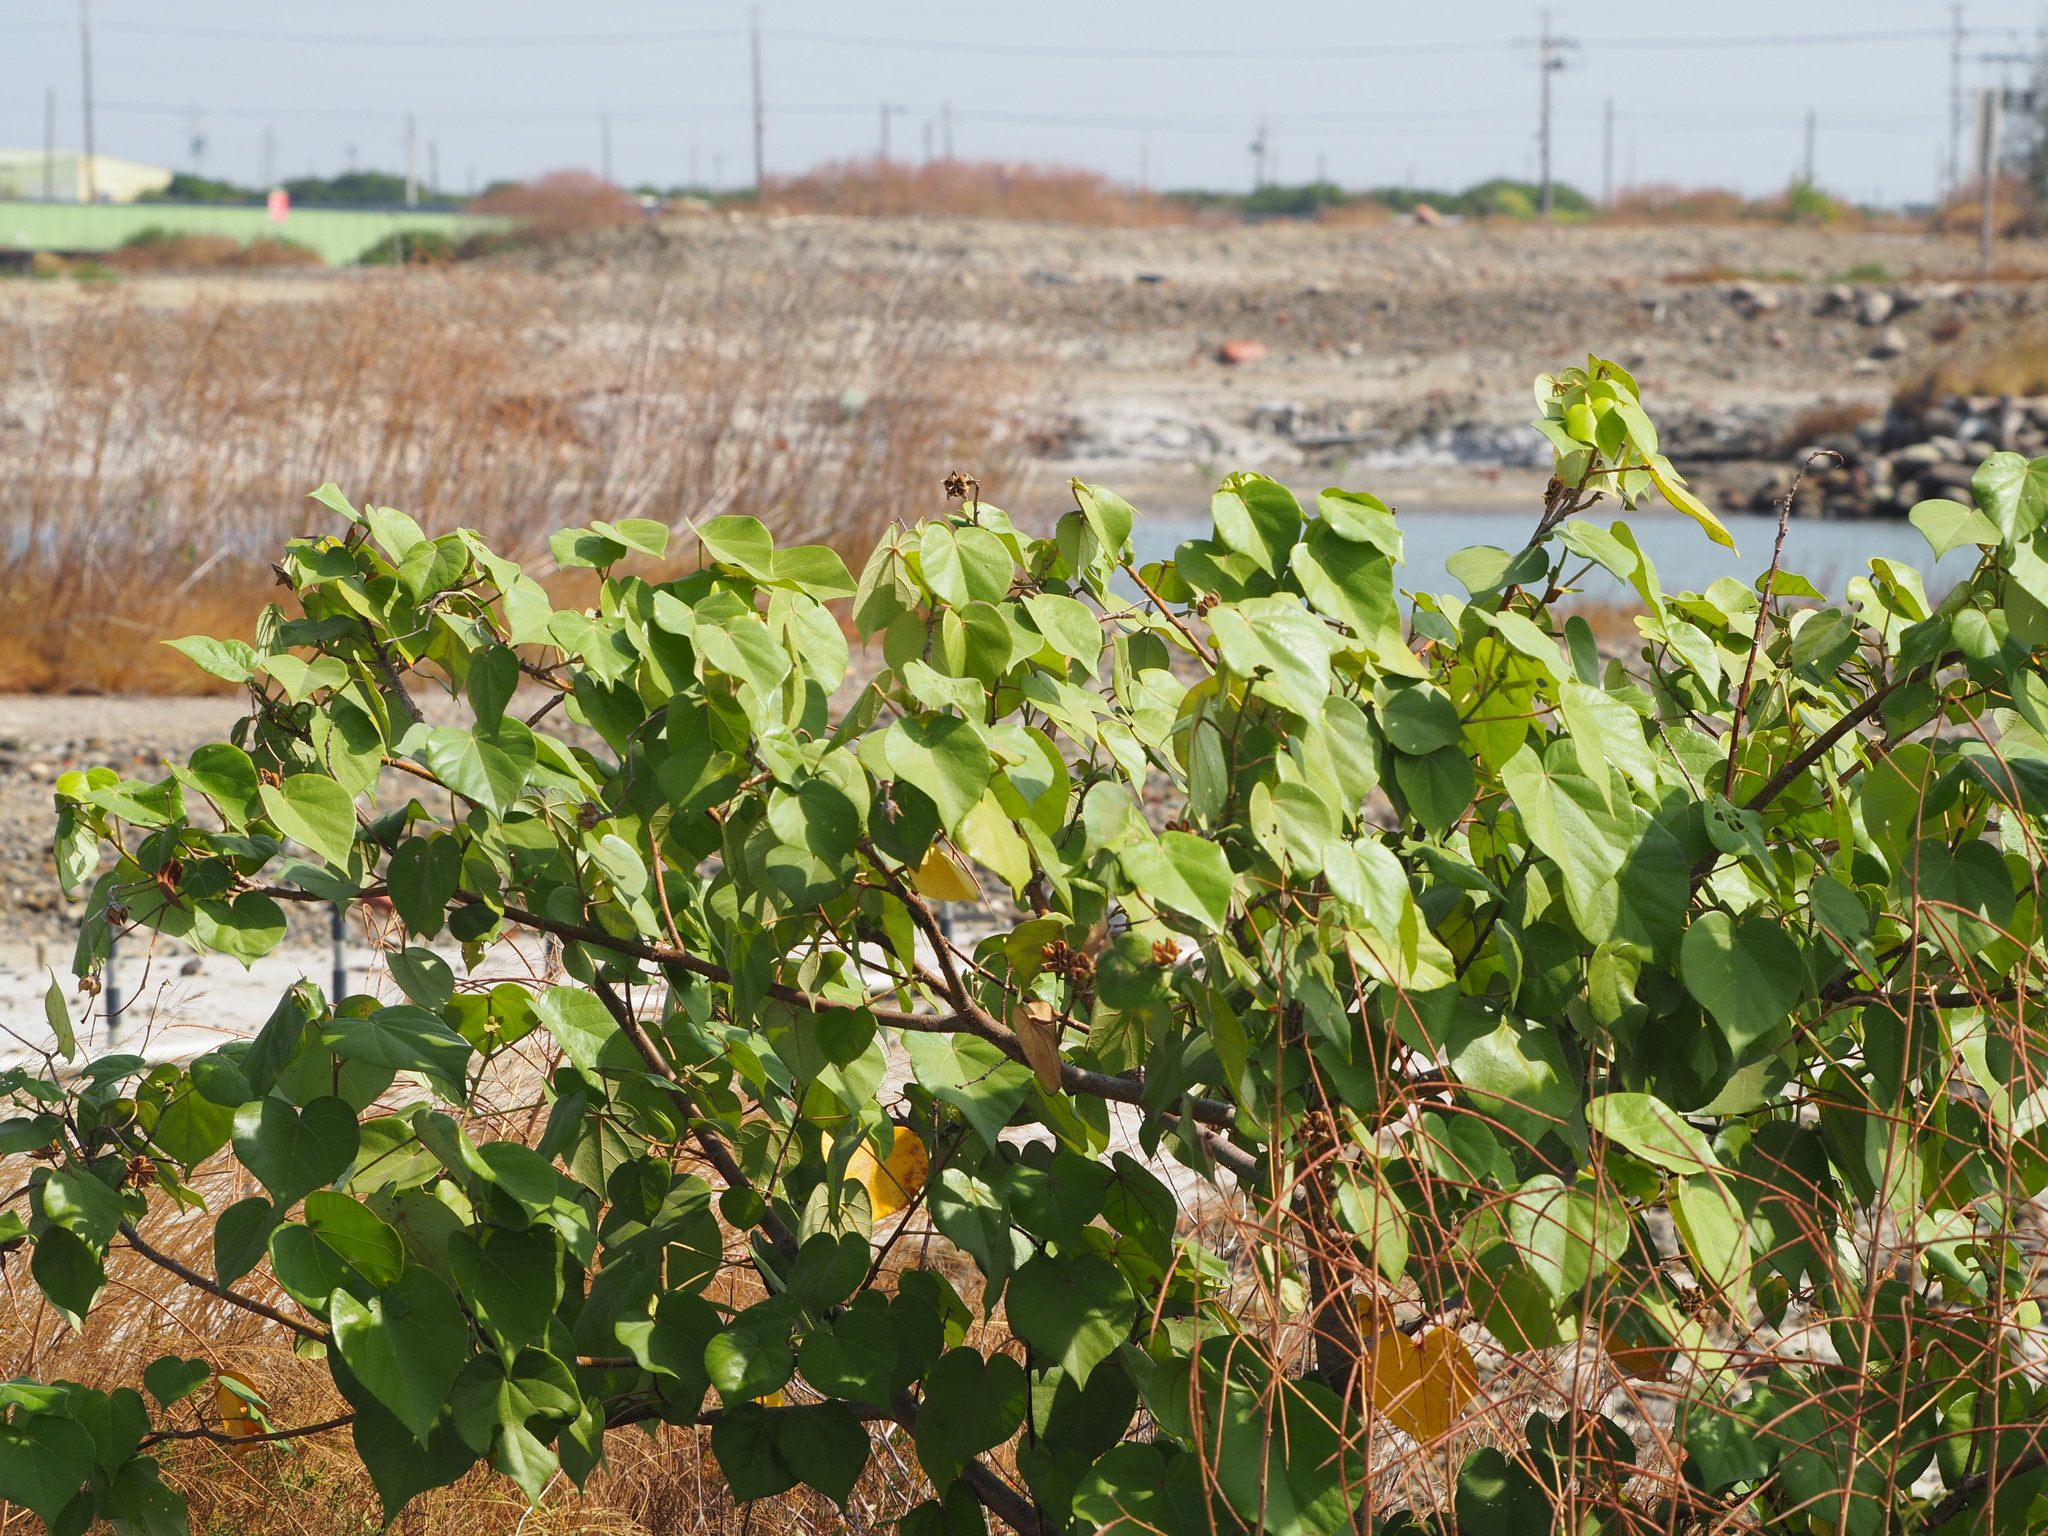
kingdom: Plantae
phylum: Tracheophyta
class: Magnoliopsida
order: Malvales
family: Malvaceae
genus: Talipariti
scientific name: Talipariti tiliaceum
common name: Sea hibiscus
